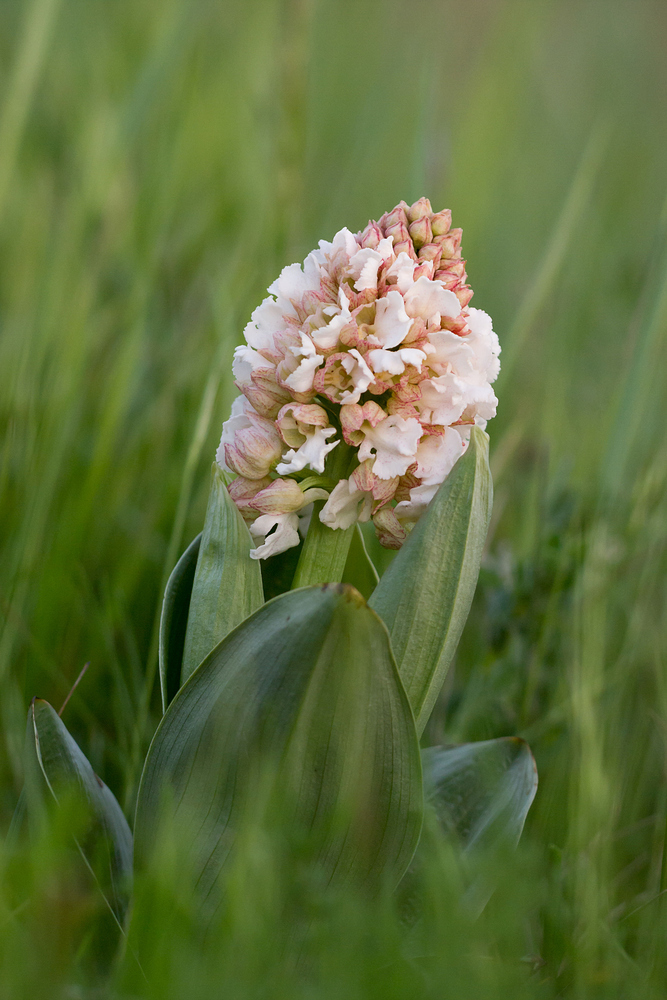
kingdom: Plantae
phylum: Tracheophyta
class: Liliopsida
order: Asparagales
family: Orchidaceae
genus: Orchis
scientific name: Orchis purpurea
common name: Lady orchid
